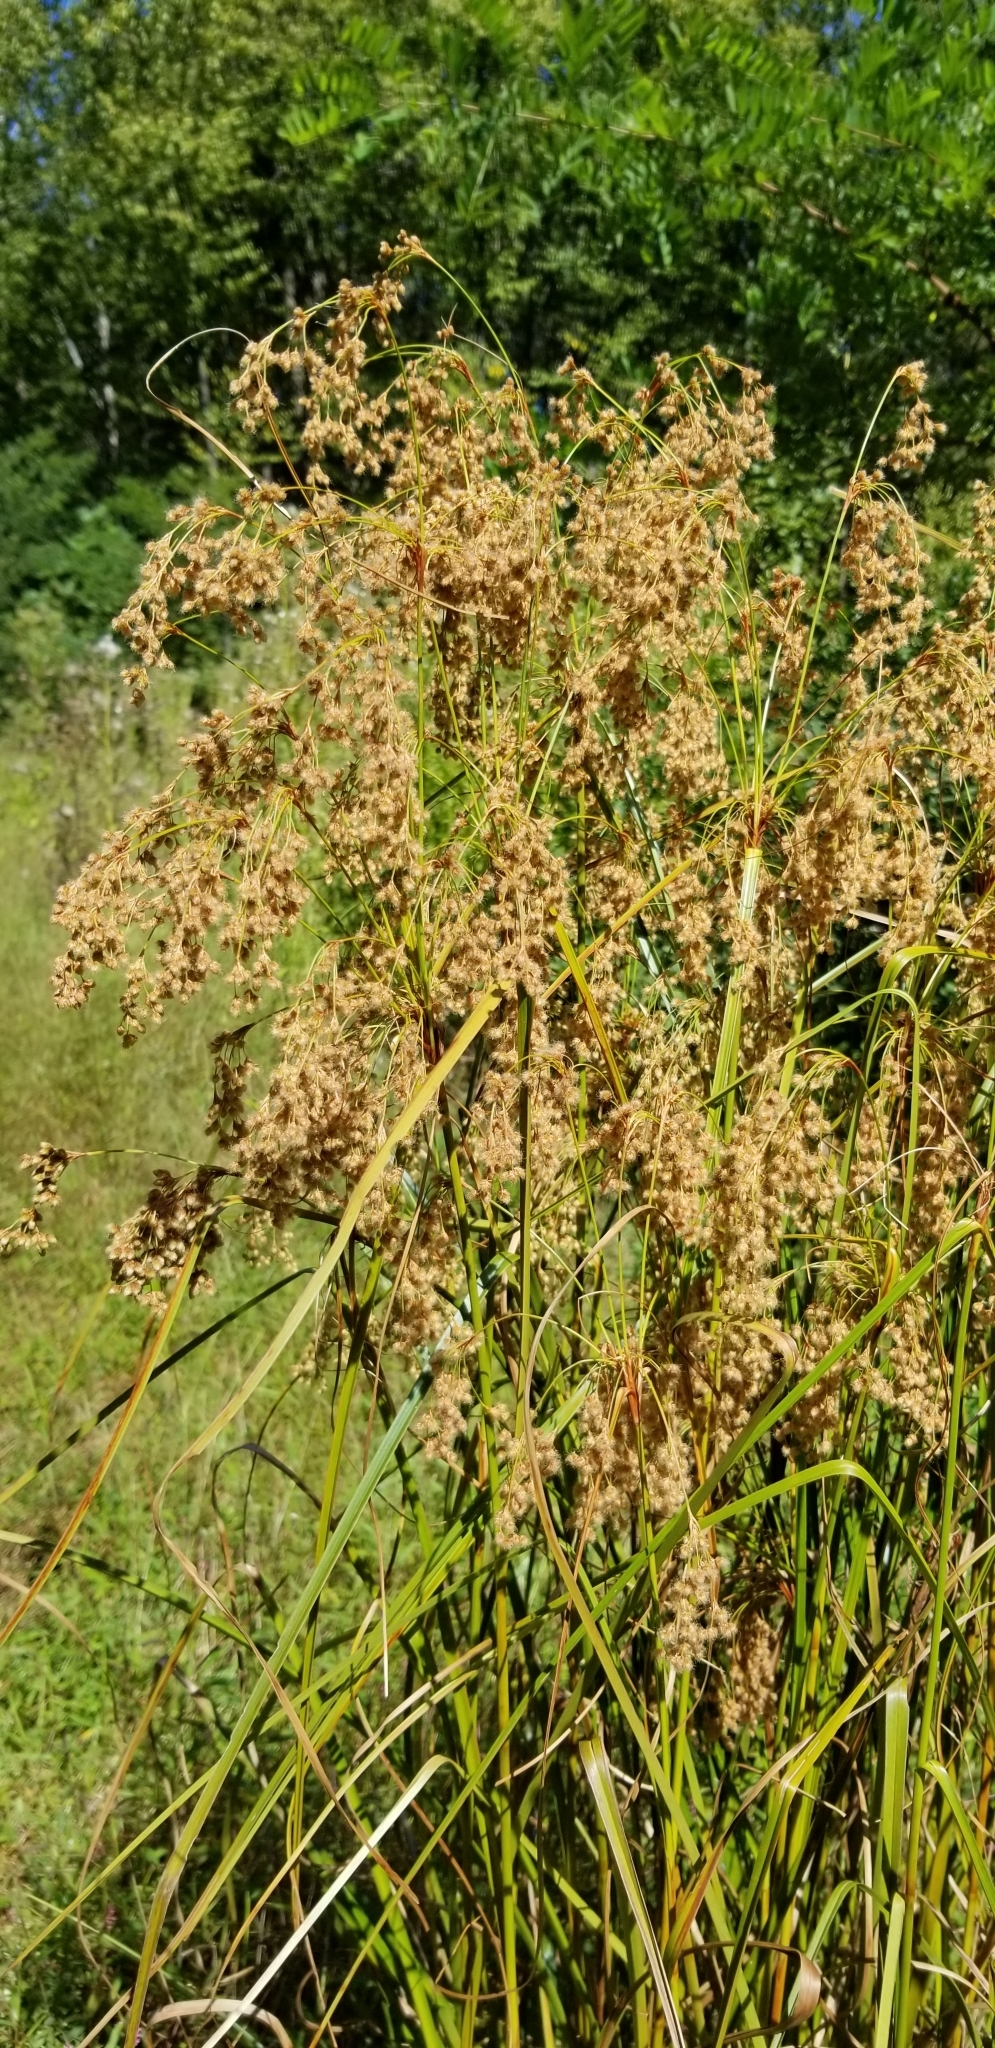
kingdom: Plantae
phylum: Tracheophyta
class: Liliopsida
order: Poales
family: Cyperaceae
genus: Scirpus
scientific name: Scirpus cyperinus
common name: Black-sheathed bulrush
